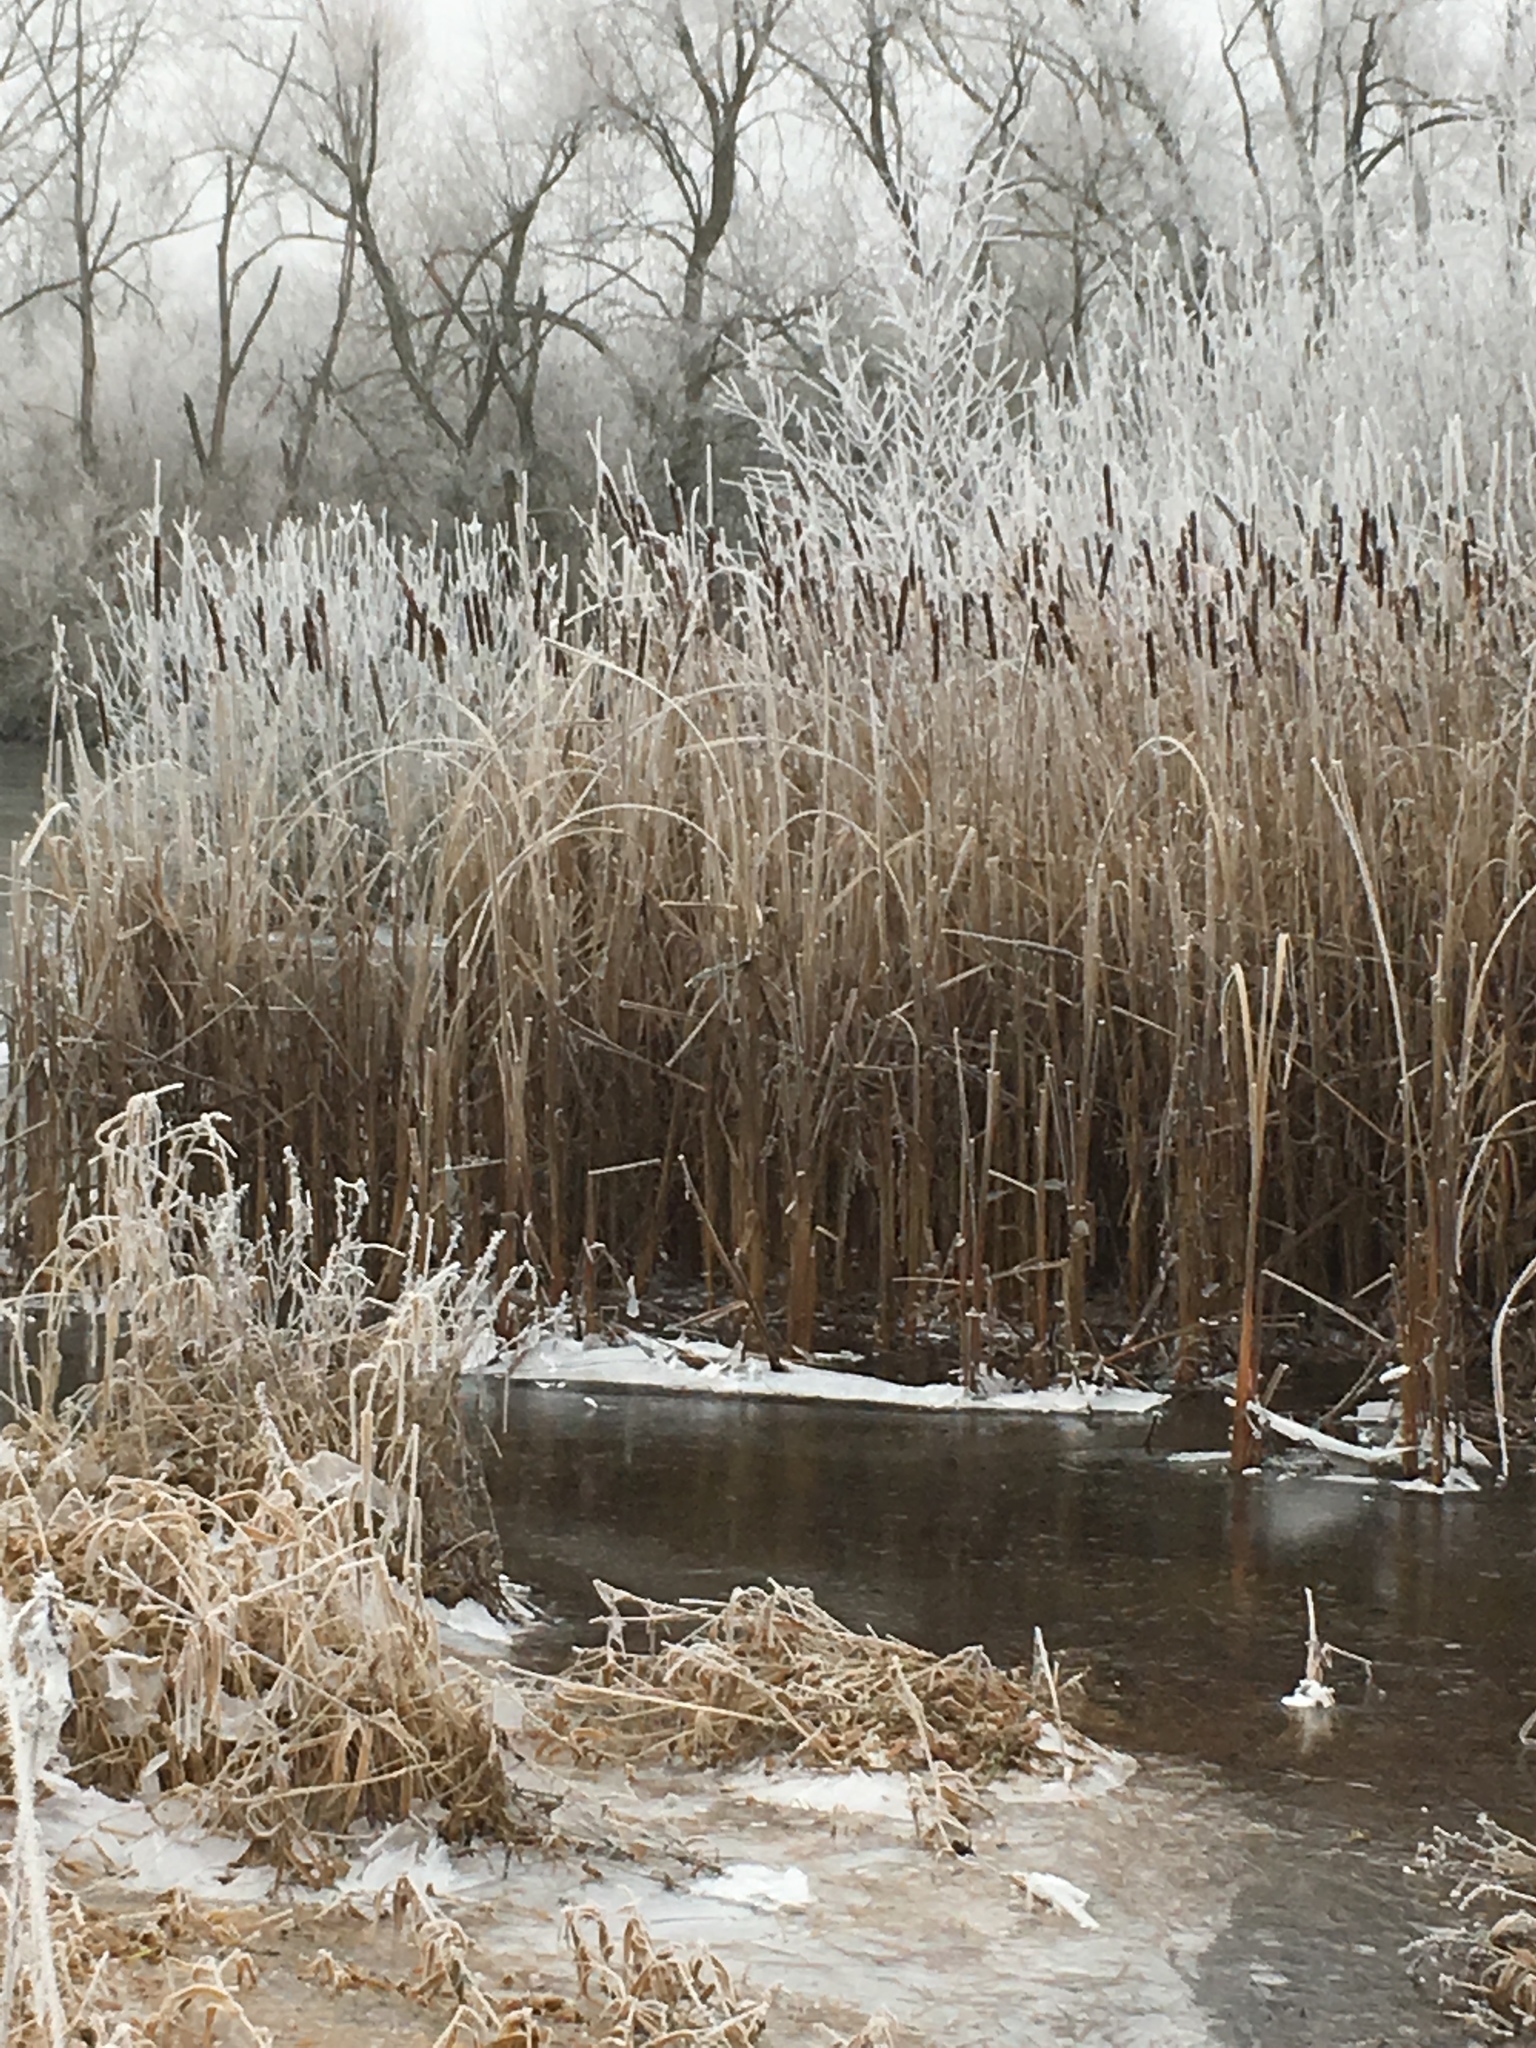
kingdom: Plantae
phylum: Tracheophyta
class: Liliopsida
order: Poales
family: Typhaceae
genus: Typha
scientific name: Typha latifolia
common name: Broadleaf cattail
